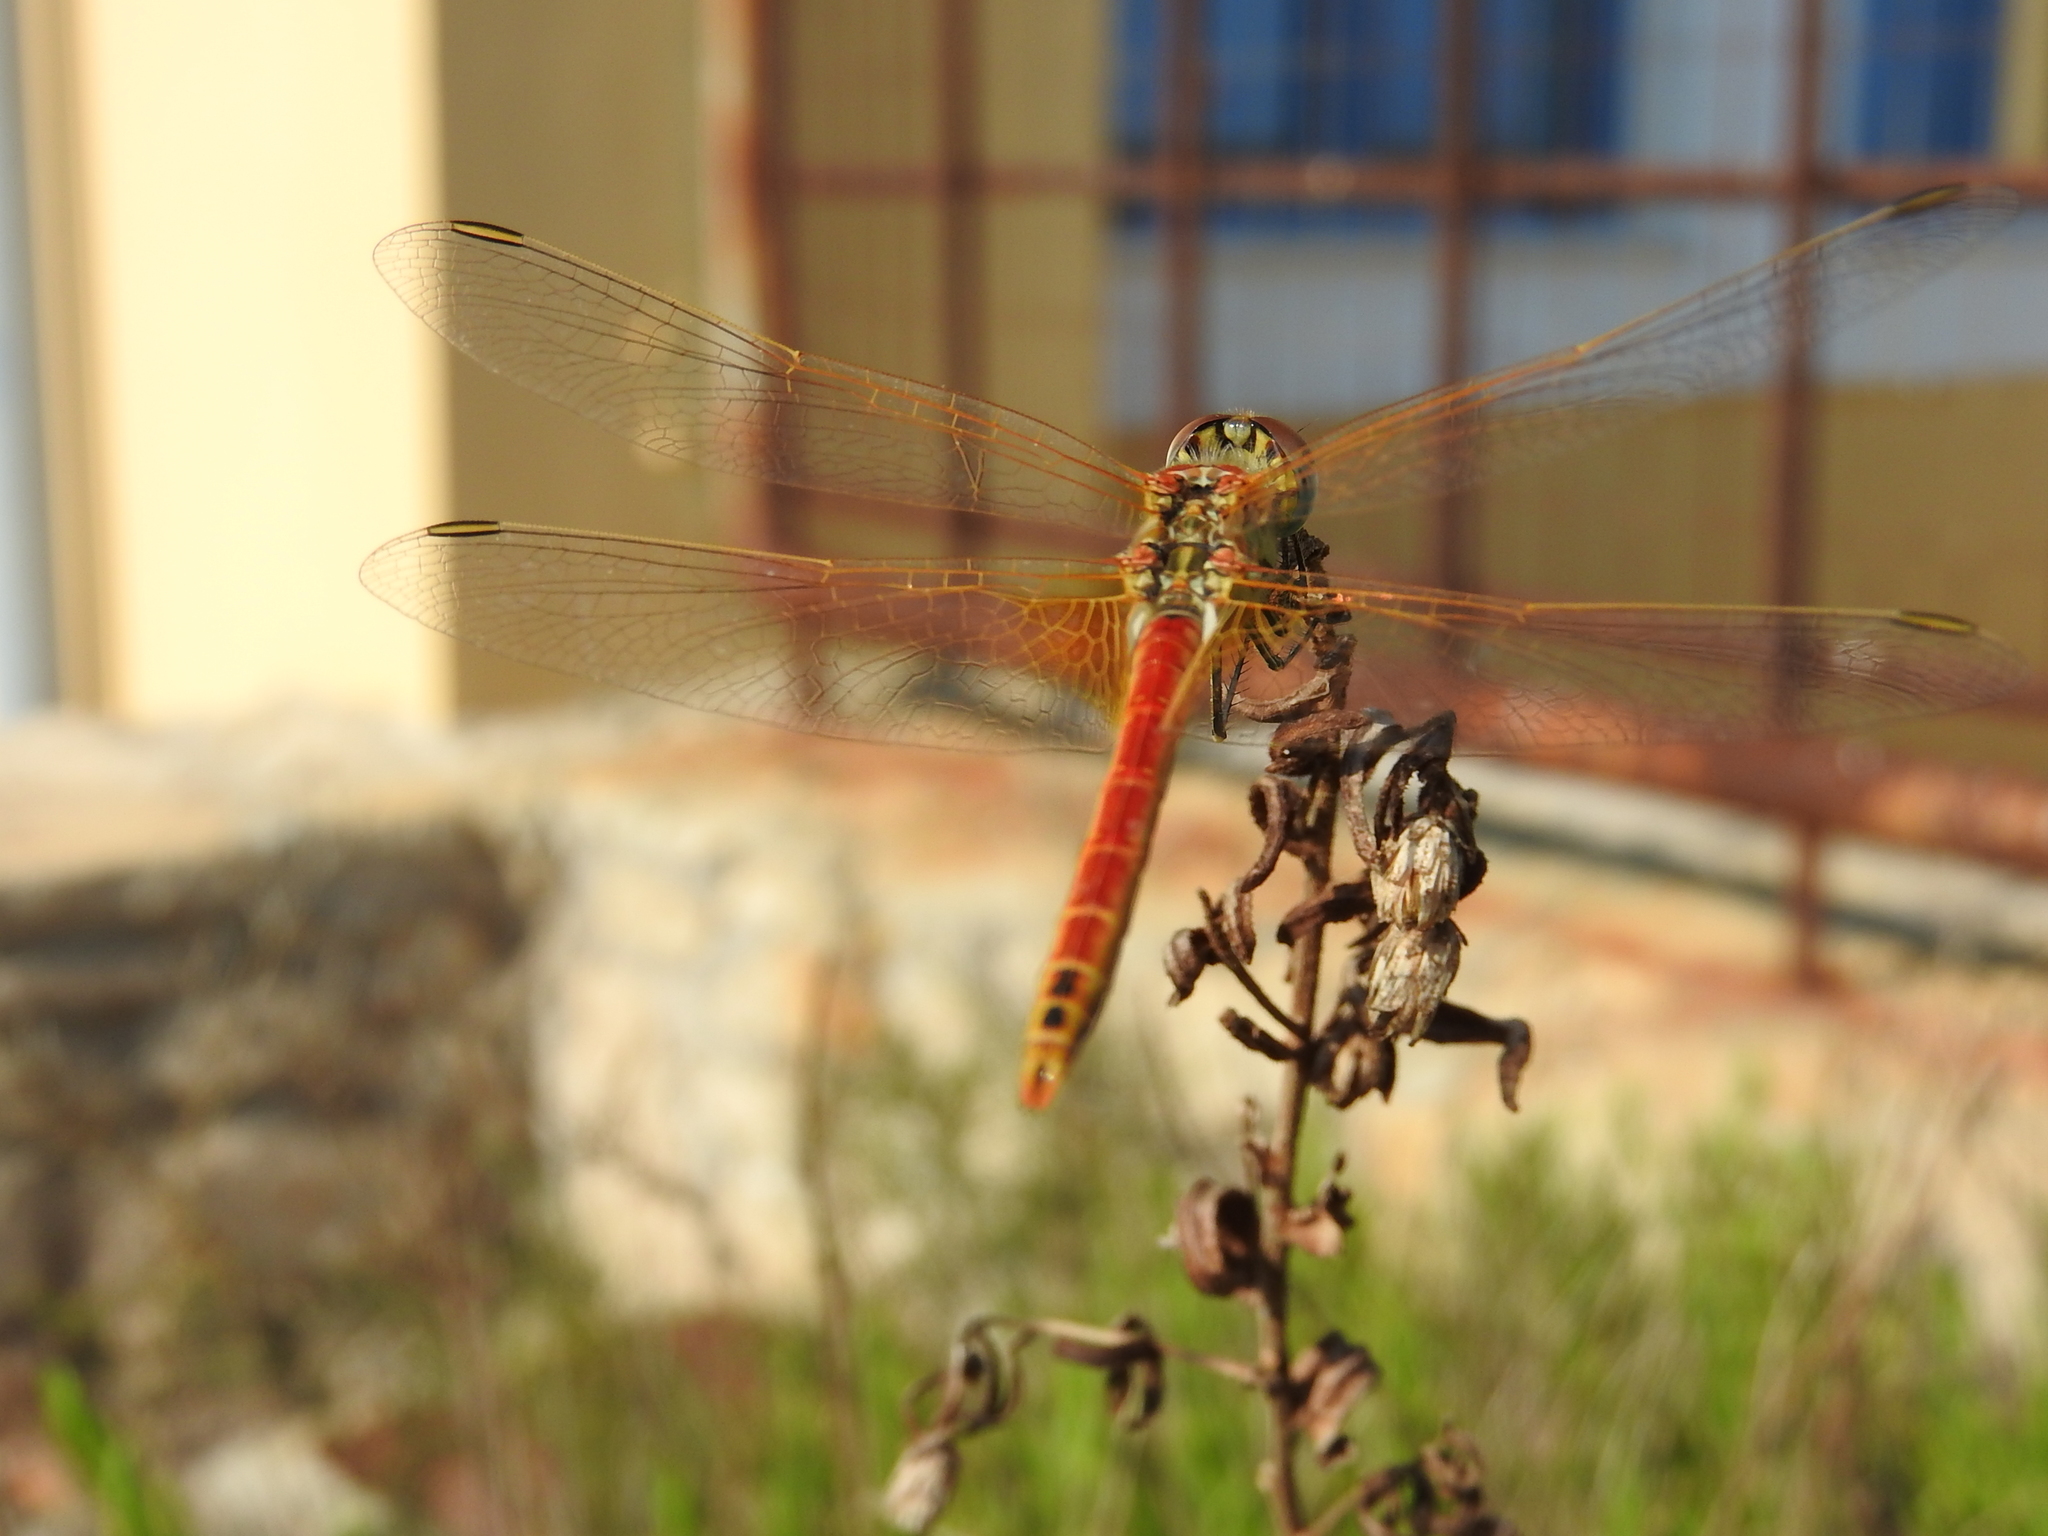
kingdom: Animalia
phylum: Arthropoda
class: Insecta
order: Odonata
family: Libellulidae
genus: Sympetrum
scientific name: Sympetrum fonscolombii
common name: Red-veined darter
